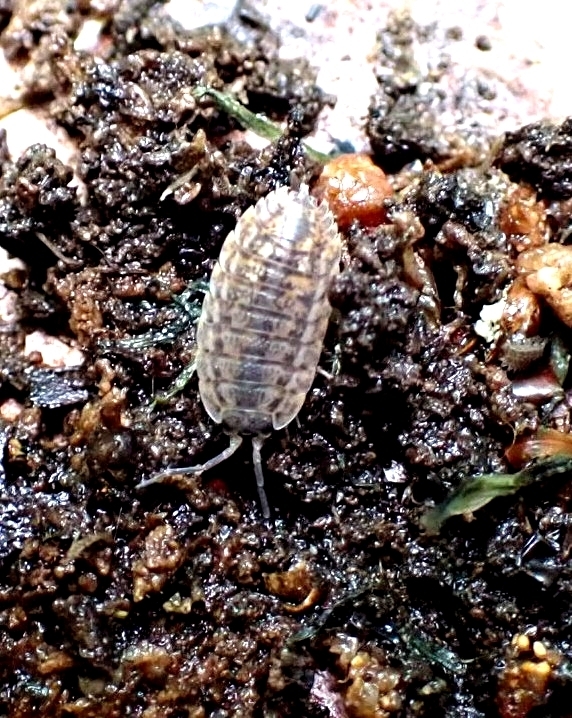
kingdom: Animalia
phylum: Arthropoda
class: Malacostraca
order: Isopoda
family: Trachelipodidae
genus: Trachelipus
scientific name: Trachelipus rathkii
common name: Isopod
